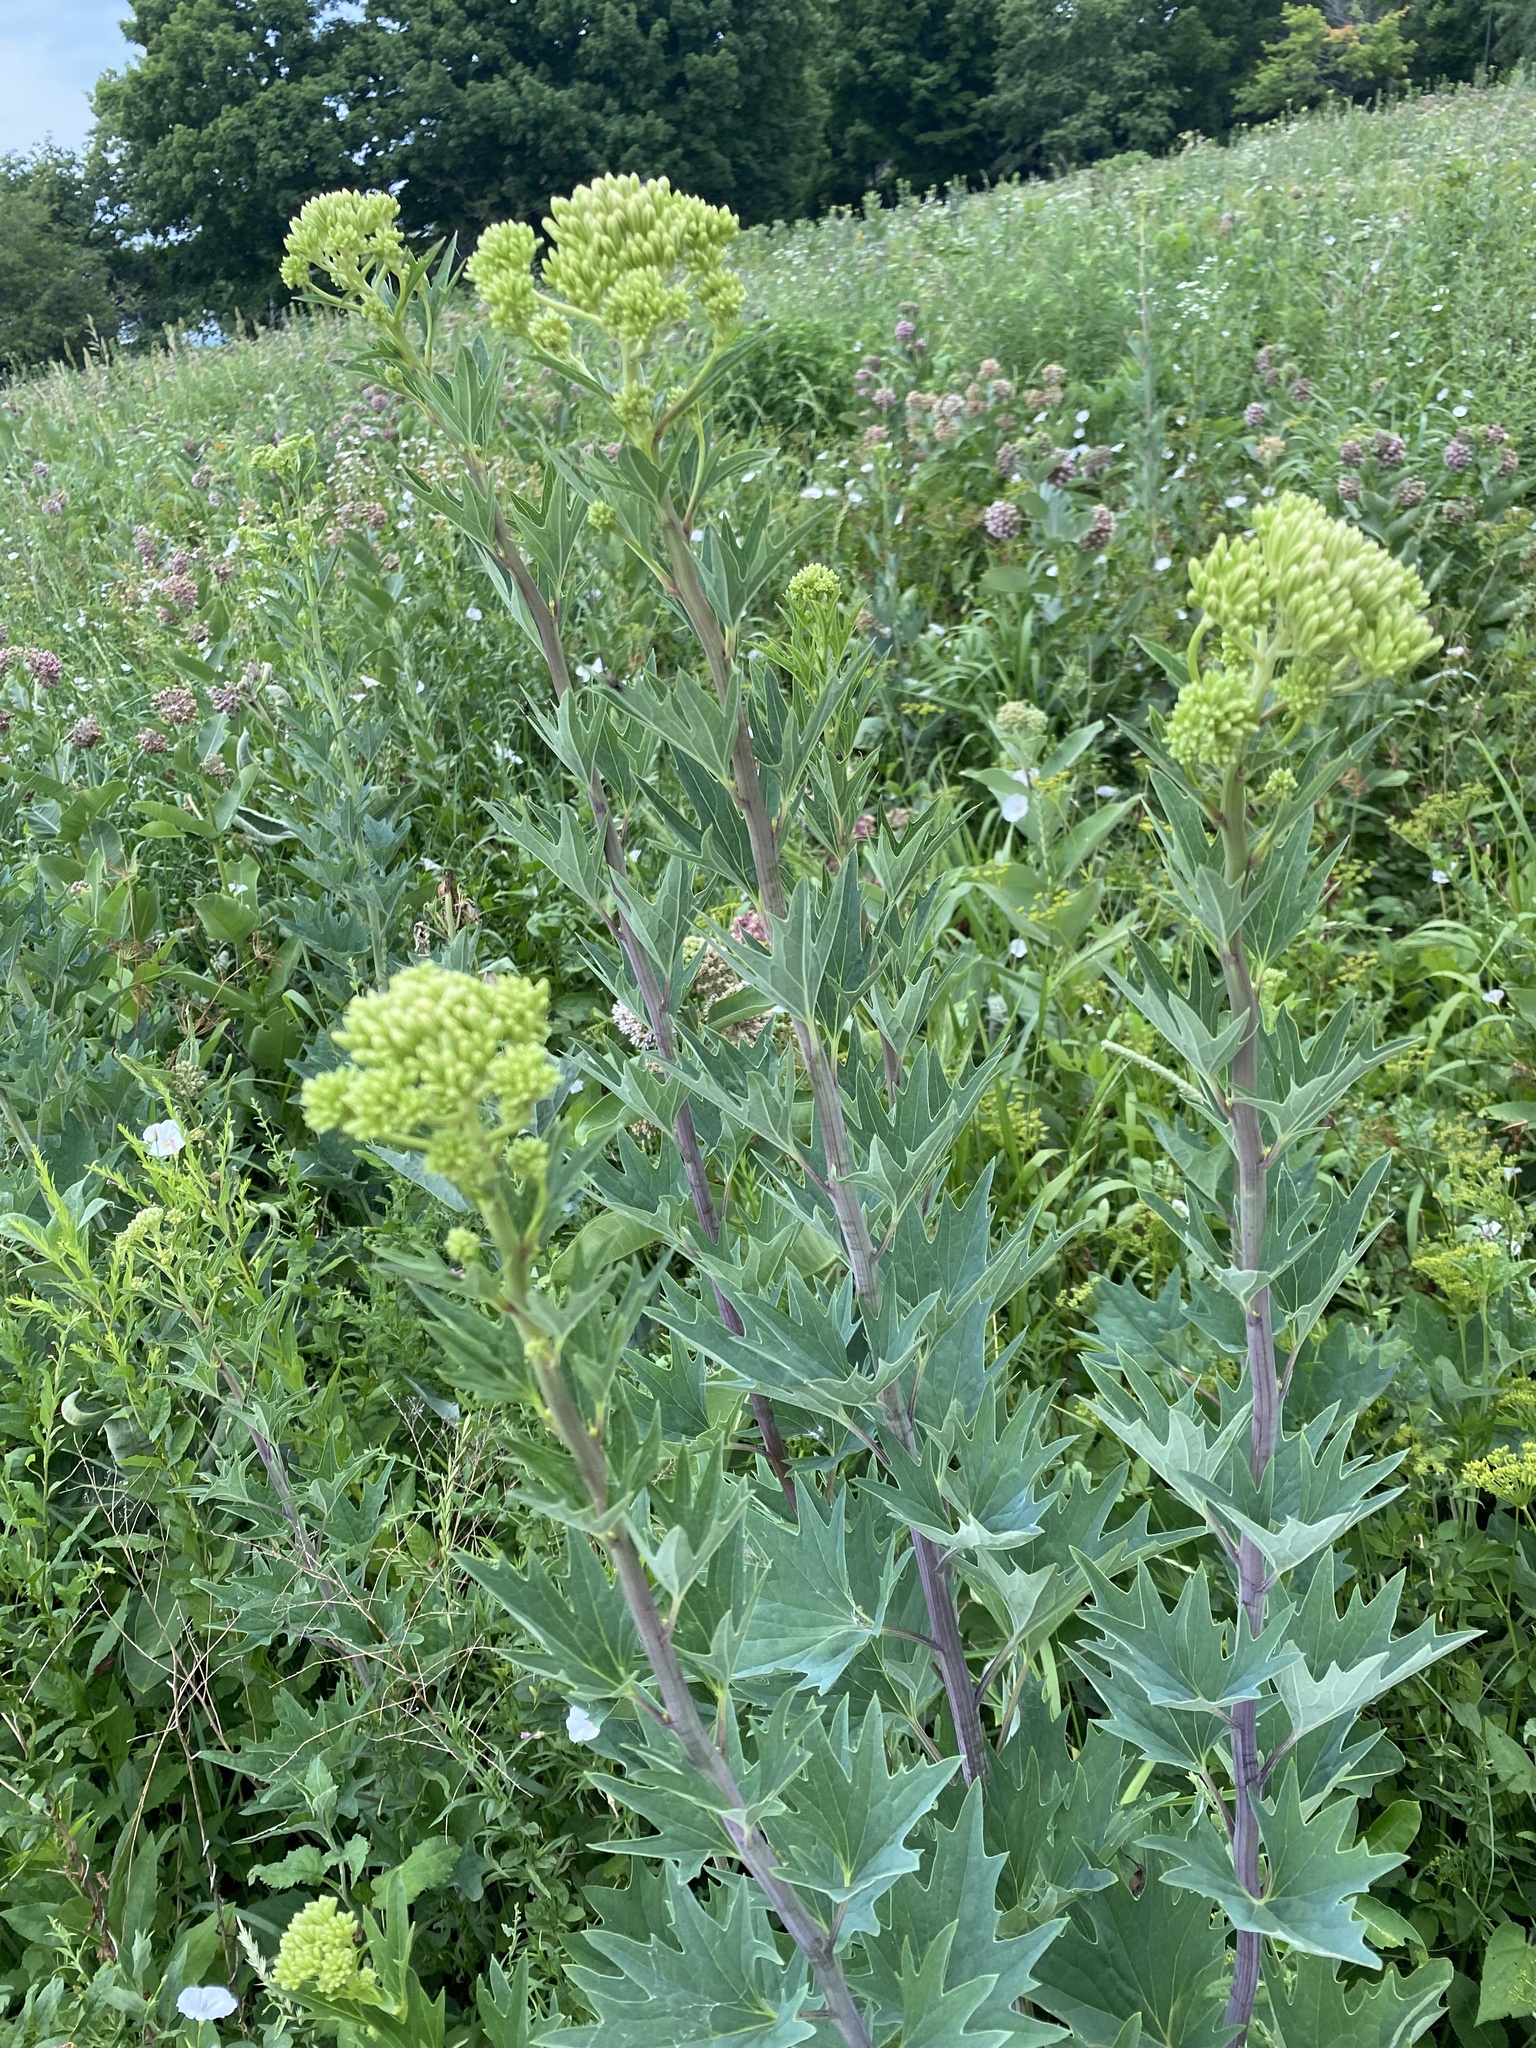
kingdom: Plantae
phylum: Tracheophyta
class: Magnoliopsida
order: Asterales
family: Asteraceae
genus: Arnoglossum
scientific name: Arnoglossum atriplicifolium
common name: Pale indian-plantain
